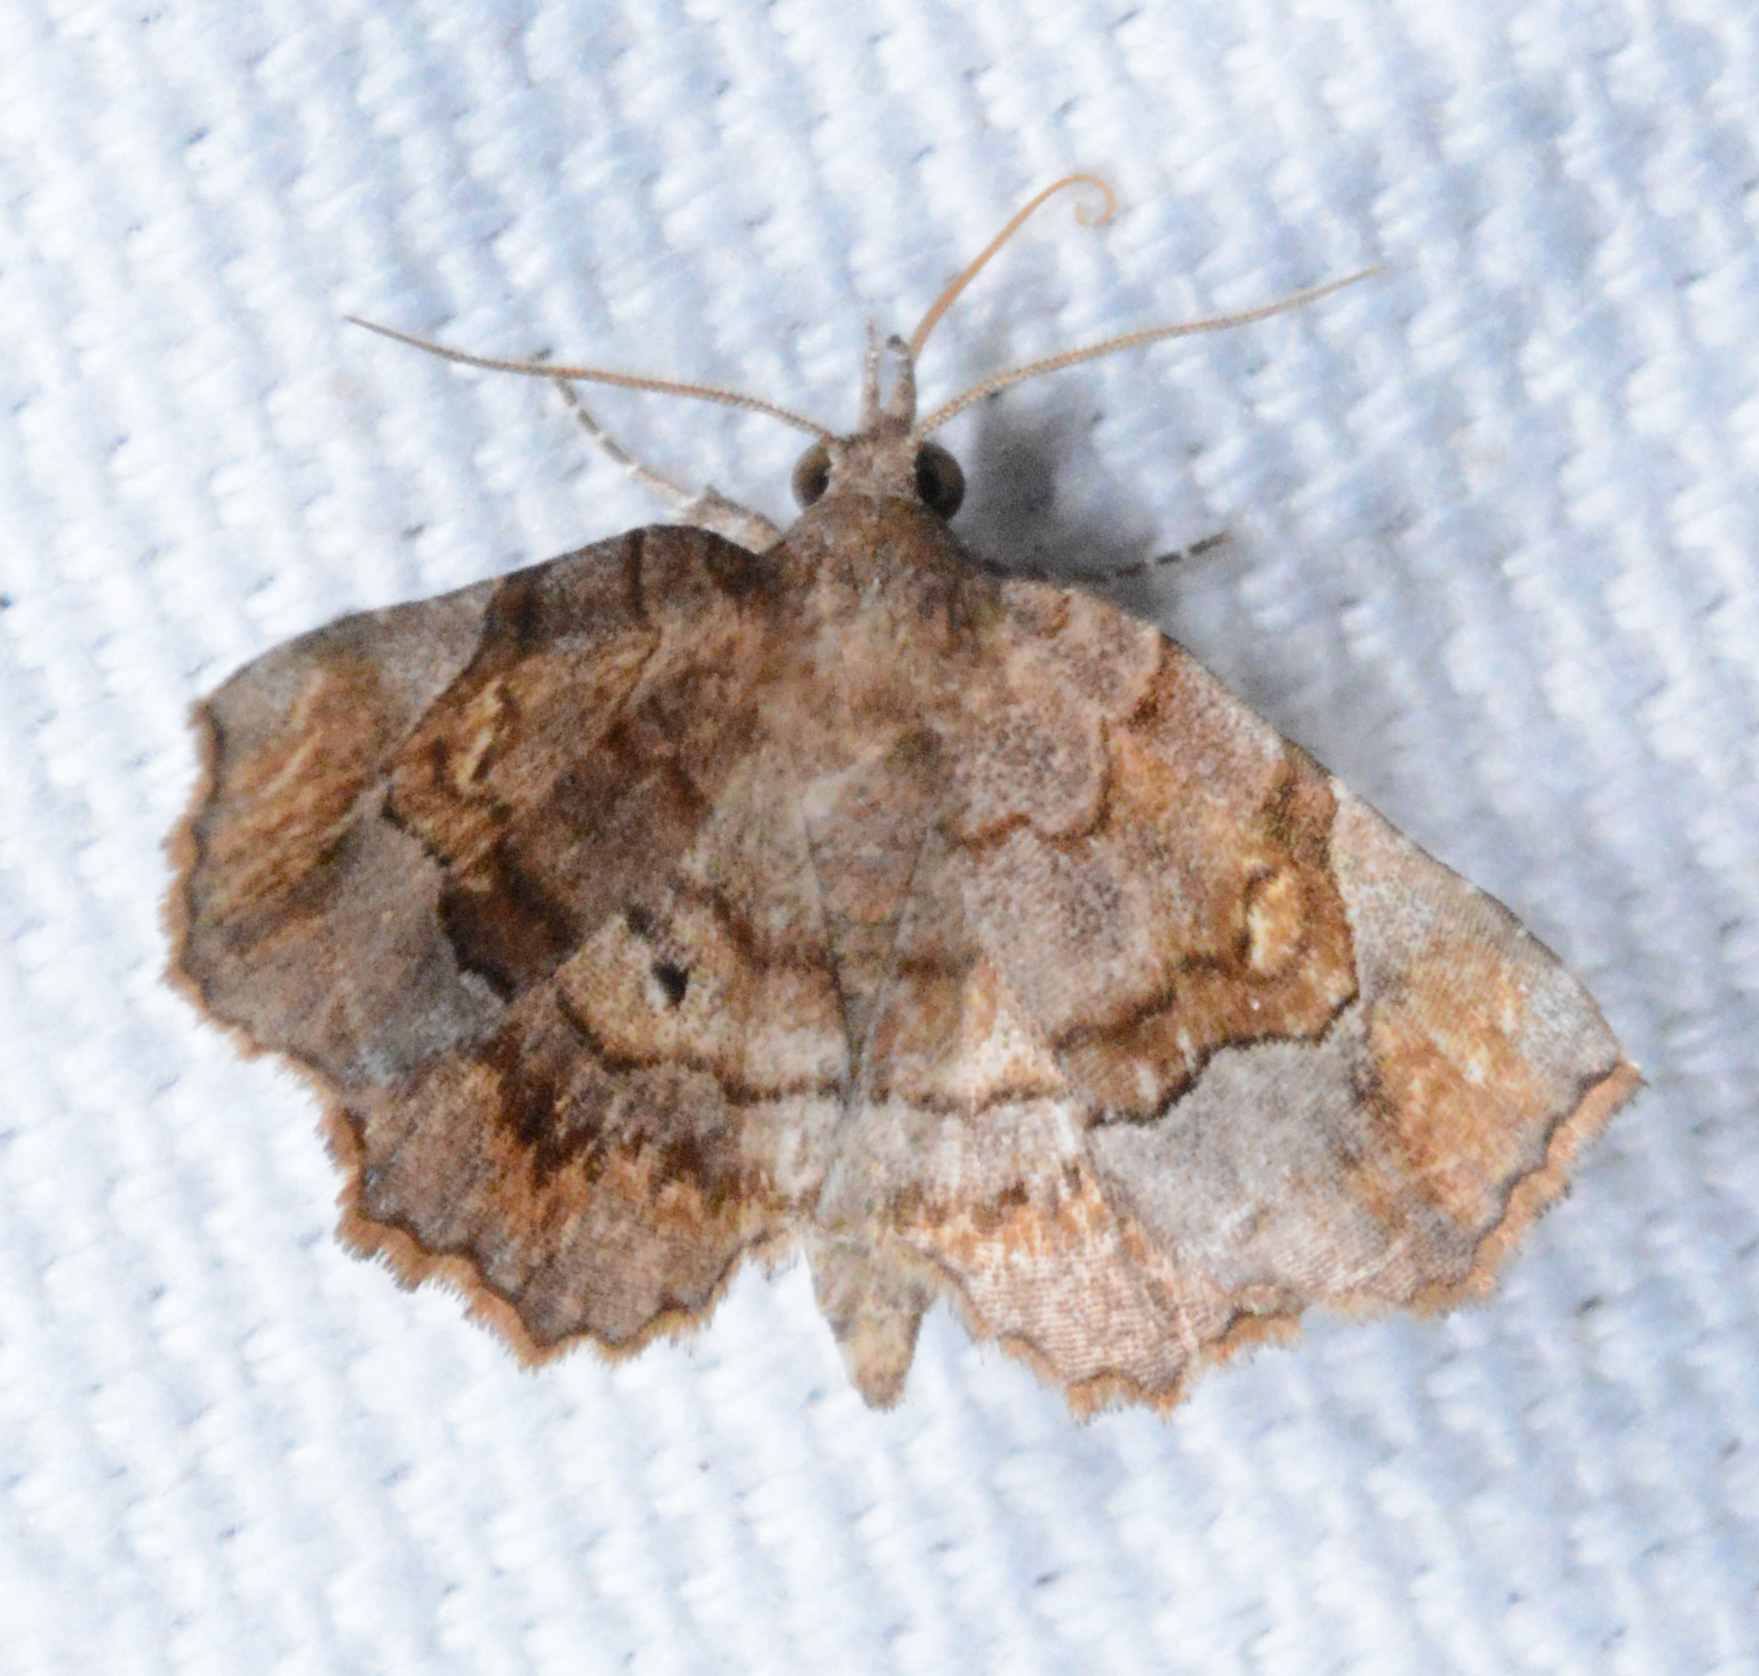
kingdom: Animalia
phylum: Arthropoda
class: Insecta
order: Lepidoptera
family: Erebidae
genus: Pangrapta
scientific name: Pangrapta decoralis
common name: Decorated owlet
